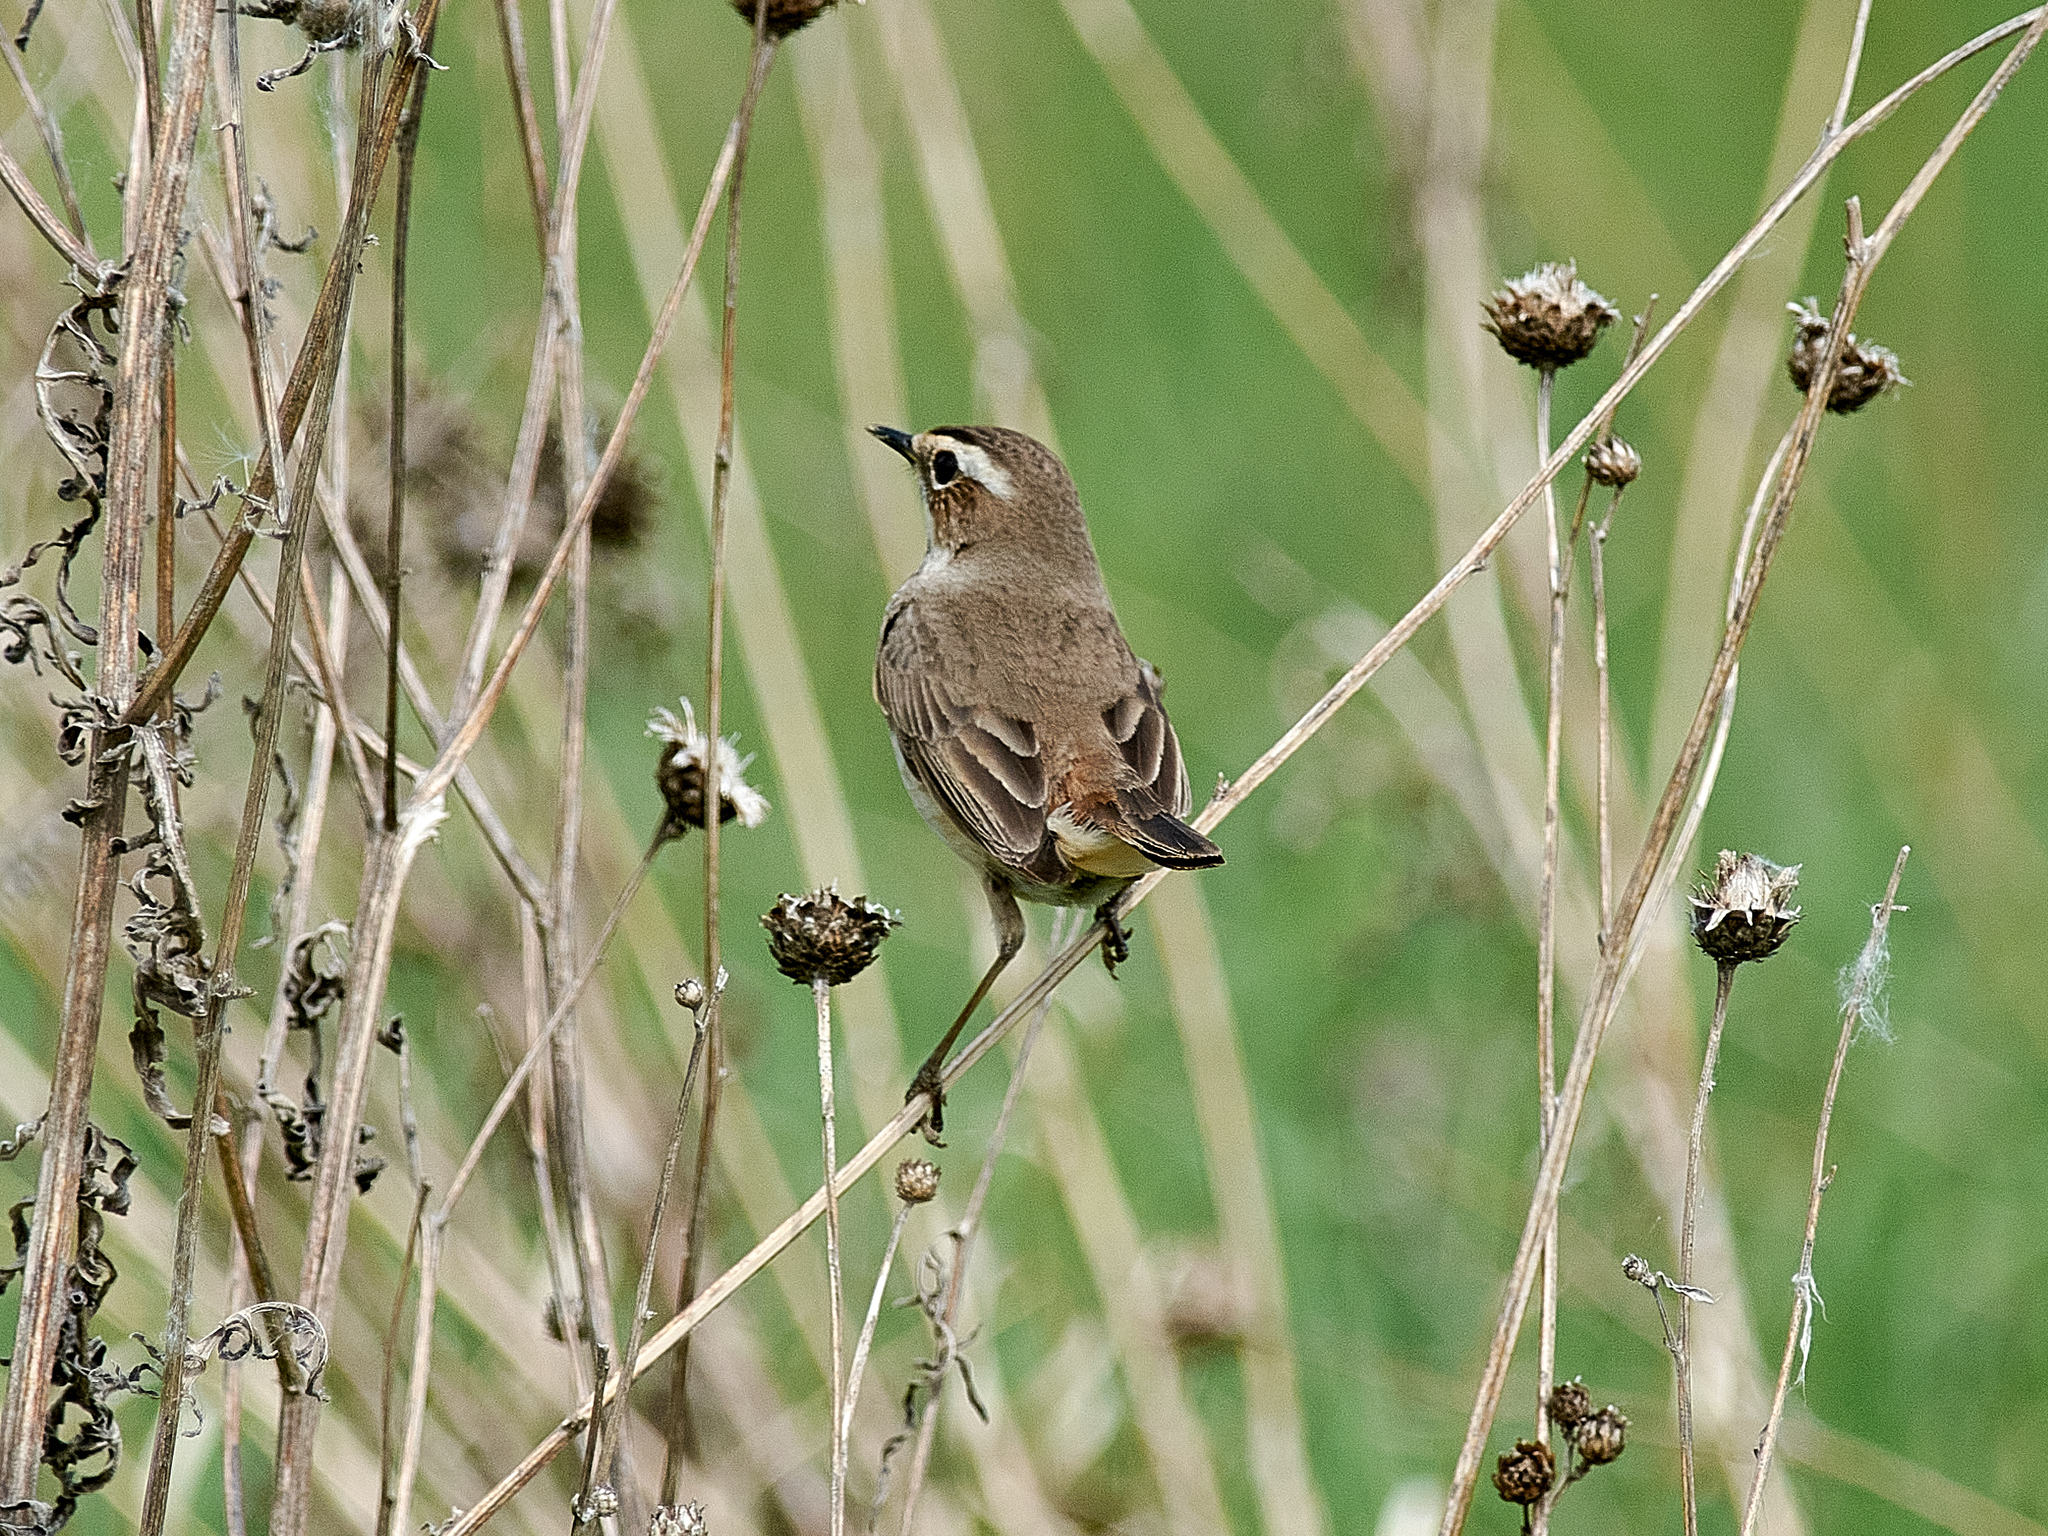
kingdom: Animalia
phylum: Chordata
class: Aves
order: Passeriformes
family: Muscicapidae
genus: Luscinia
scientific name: Luscinia svecica
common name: Bluethroat
